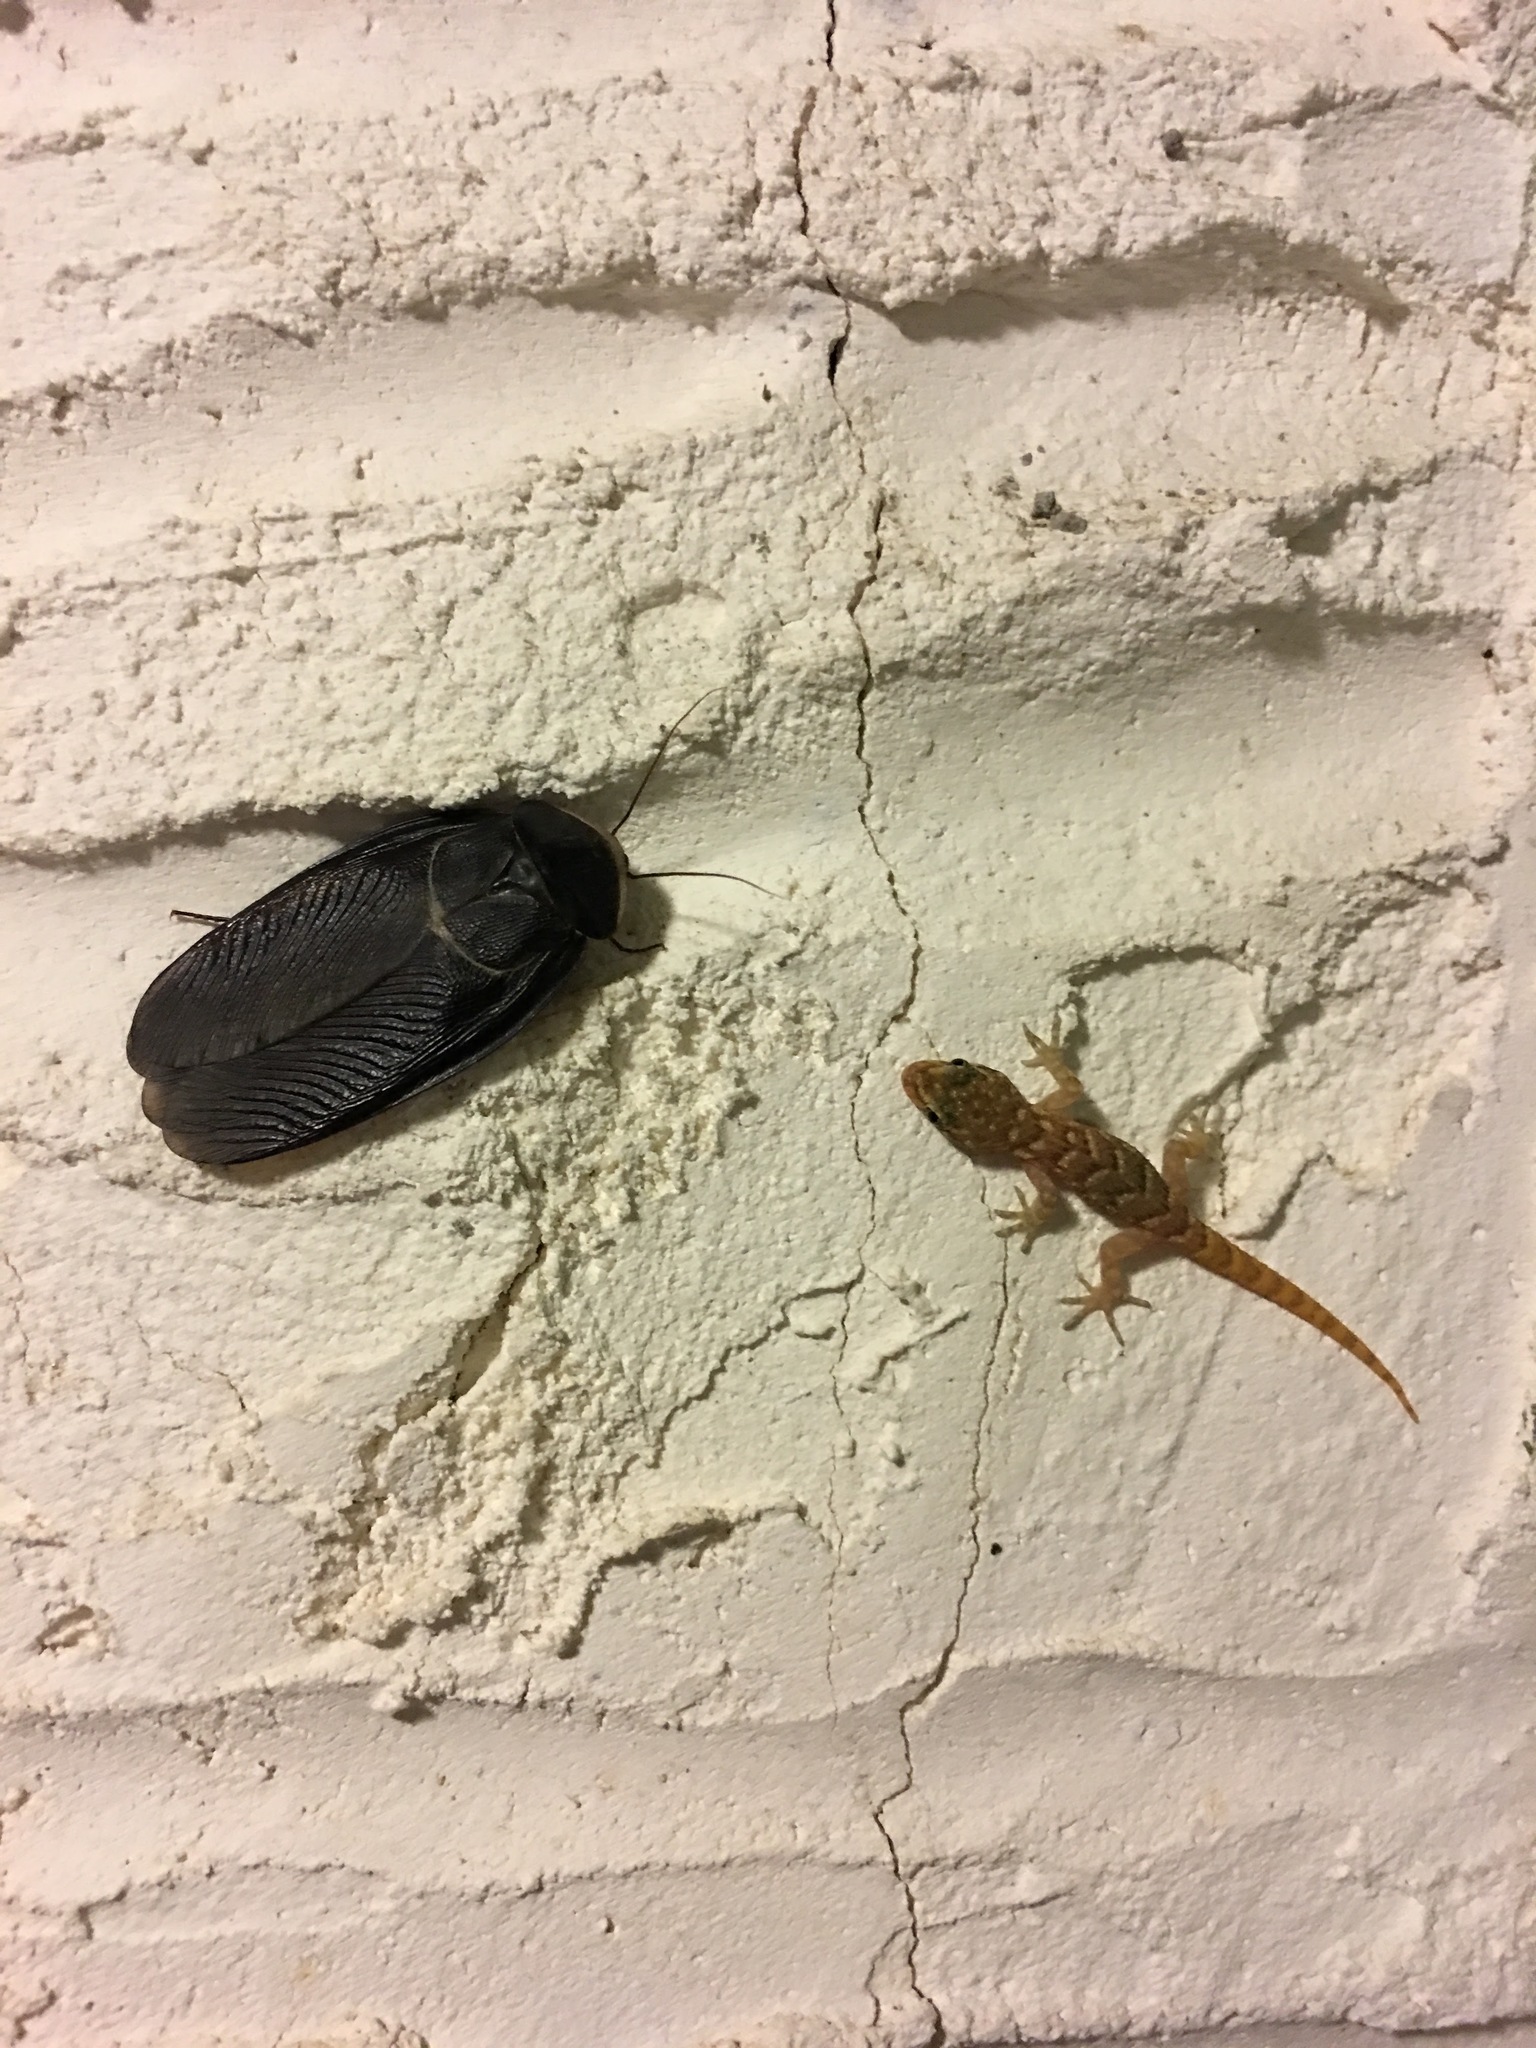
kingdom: Animalia
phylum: Arthropoda
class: Insecta
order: Blattodea
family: Corydiidae
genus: Polyphaga
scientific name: Polyphaga aegyptiaca
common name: Egyptian cockroach
